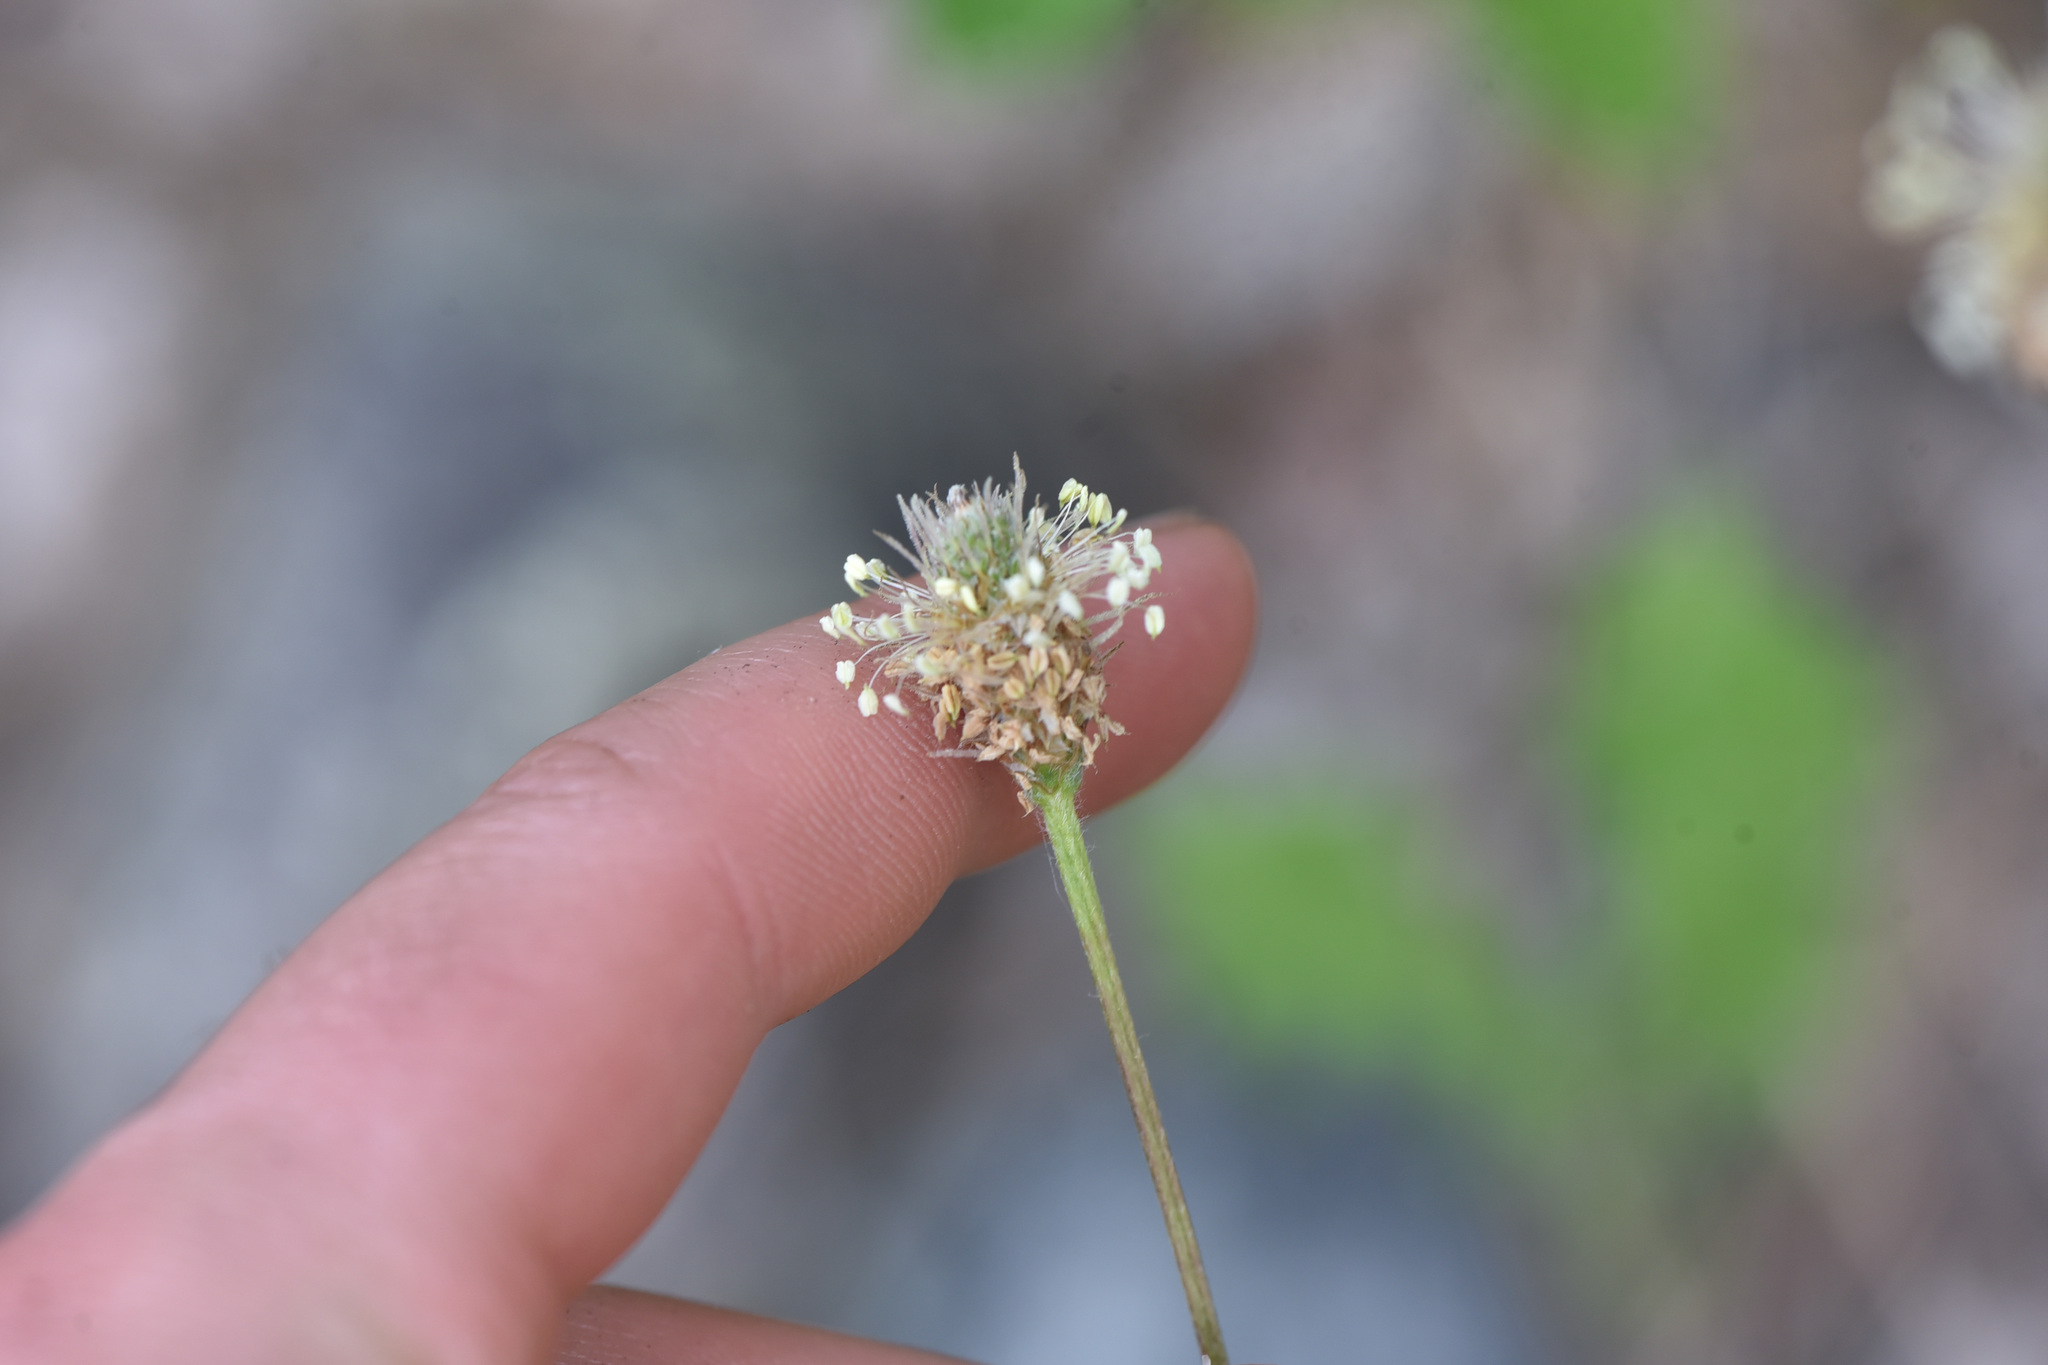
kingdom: Plantae
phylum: Tracheophyta
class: Magnoliopsida
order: Lamiales
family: Plantaginaceae
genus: Plantago
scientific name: Plantago lanceolata
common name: Ribwort plantain
